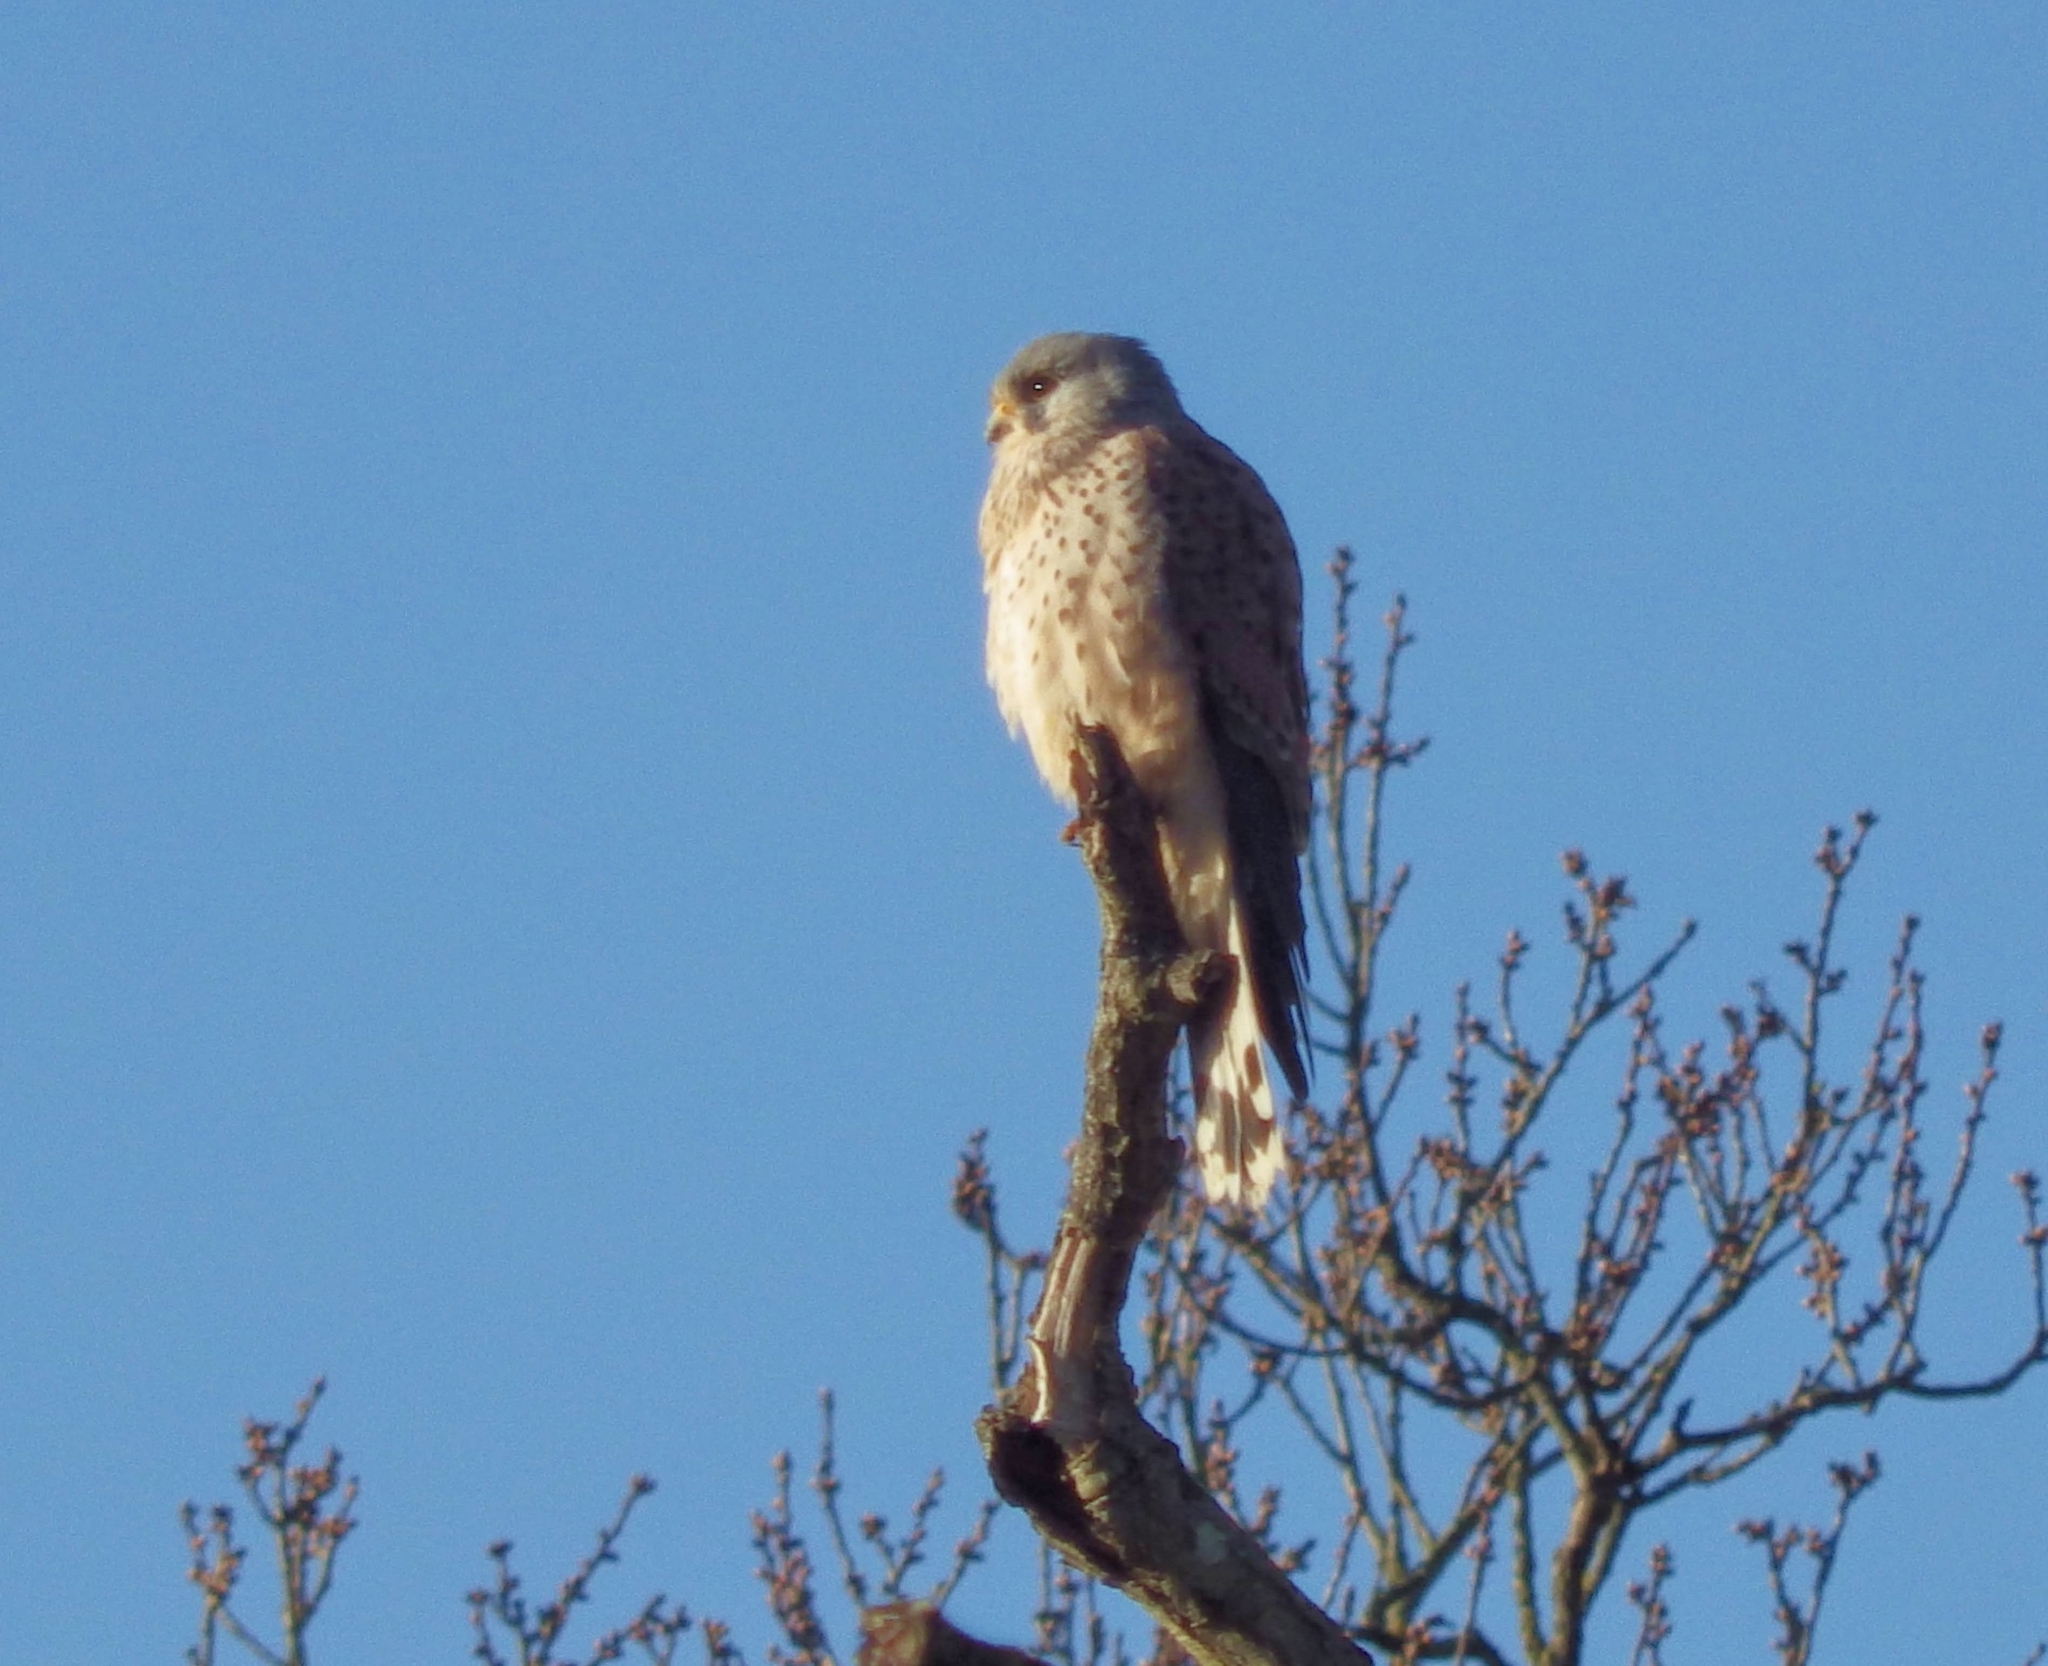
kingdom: Animalia
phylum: Chordata
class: Aves
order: Falconiformes
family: Falconidae
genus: Falco
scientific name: Falco tinnunculus
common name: Common kestrel
